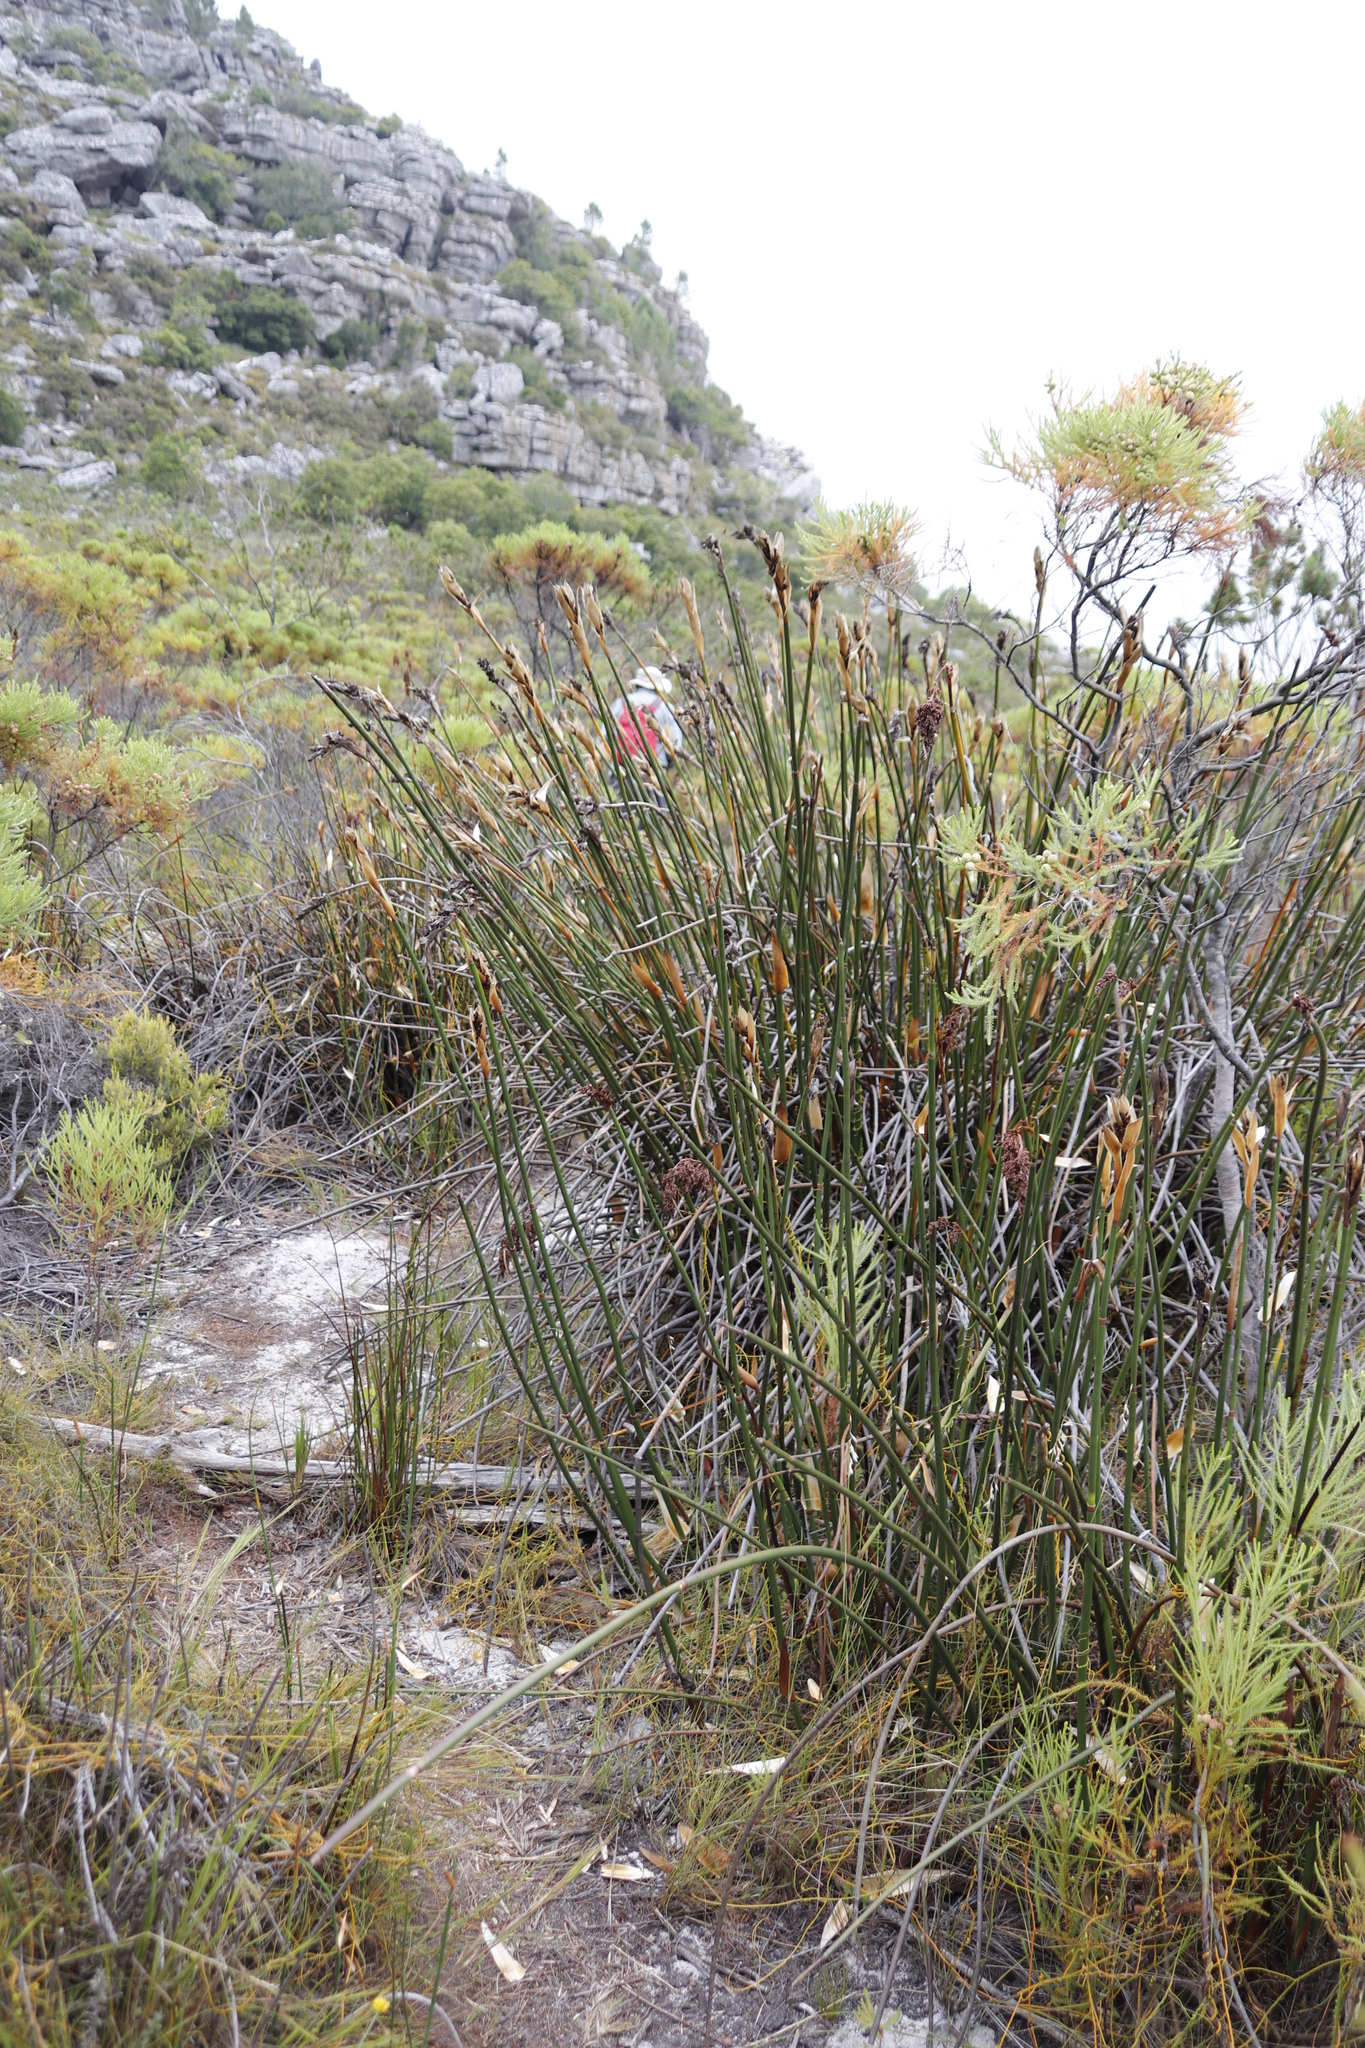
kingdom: Plantae
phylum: Tracheophyta
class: Liliopsida
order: Poales
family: Restionaceae
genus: Elegia
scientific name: Elegia mucronata
